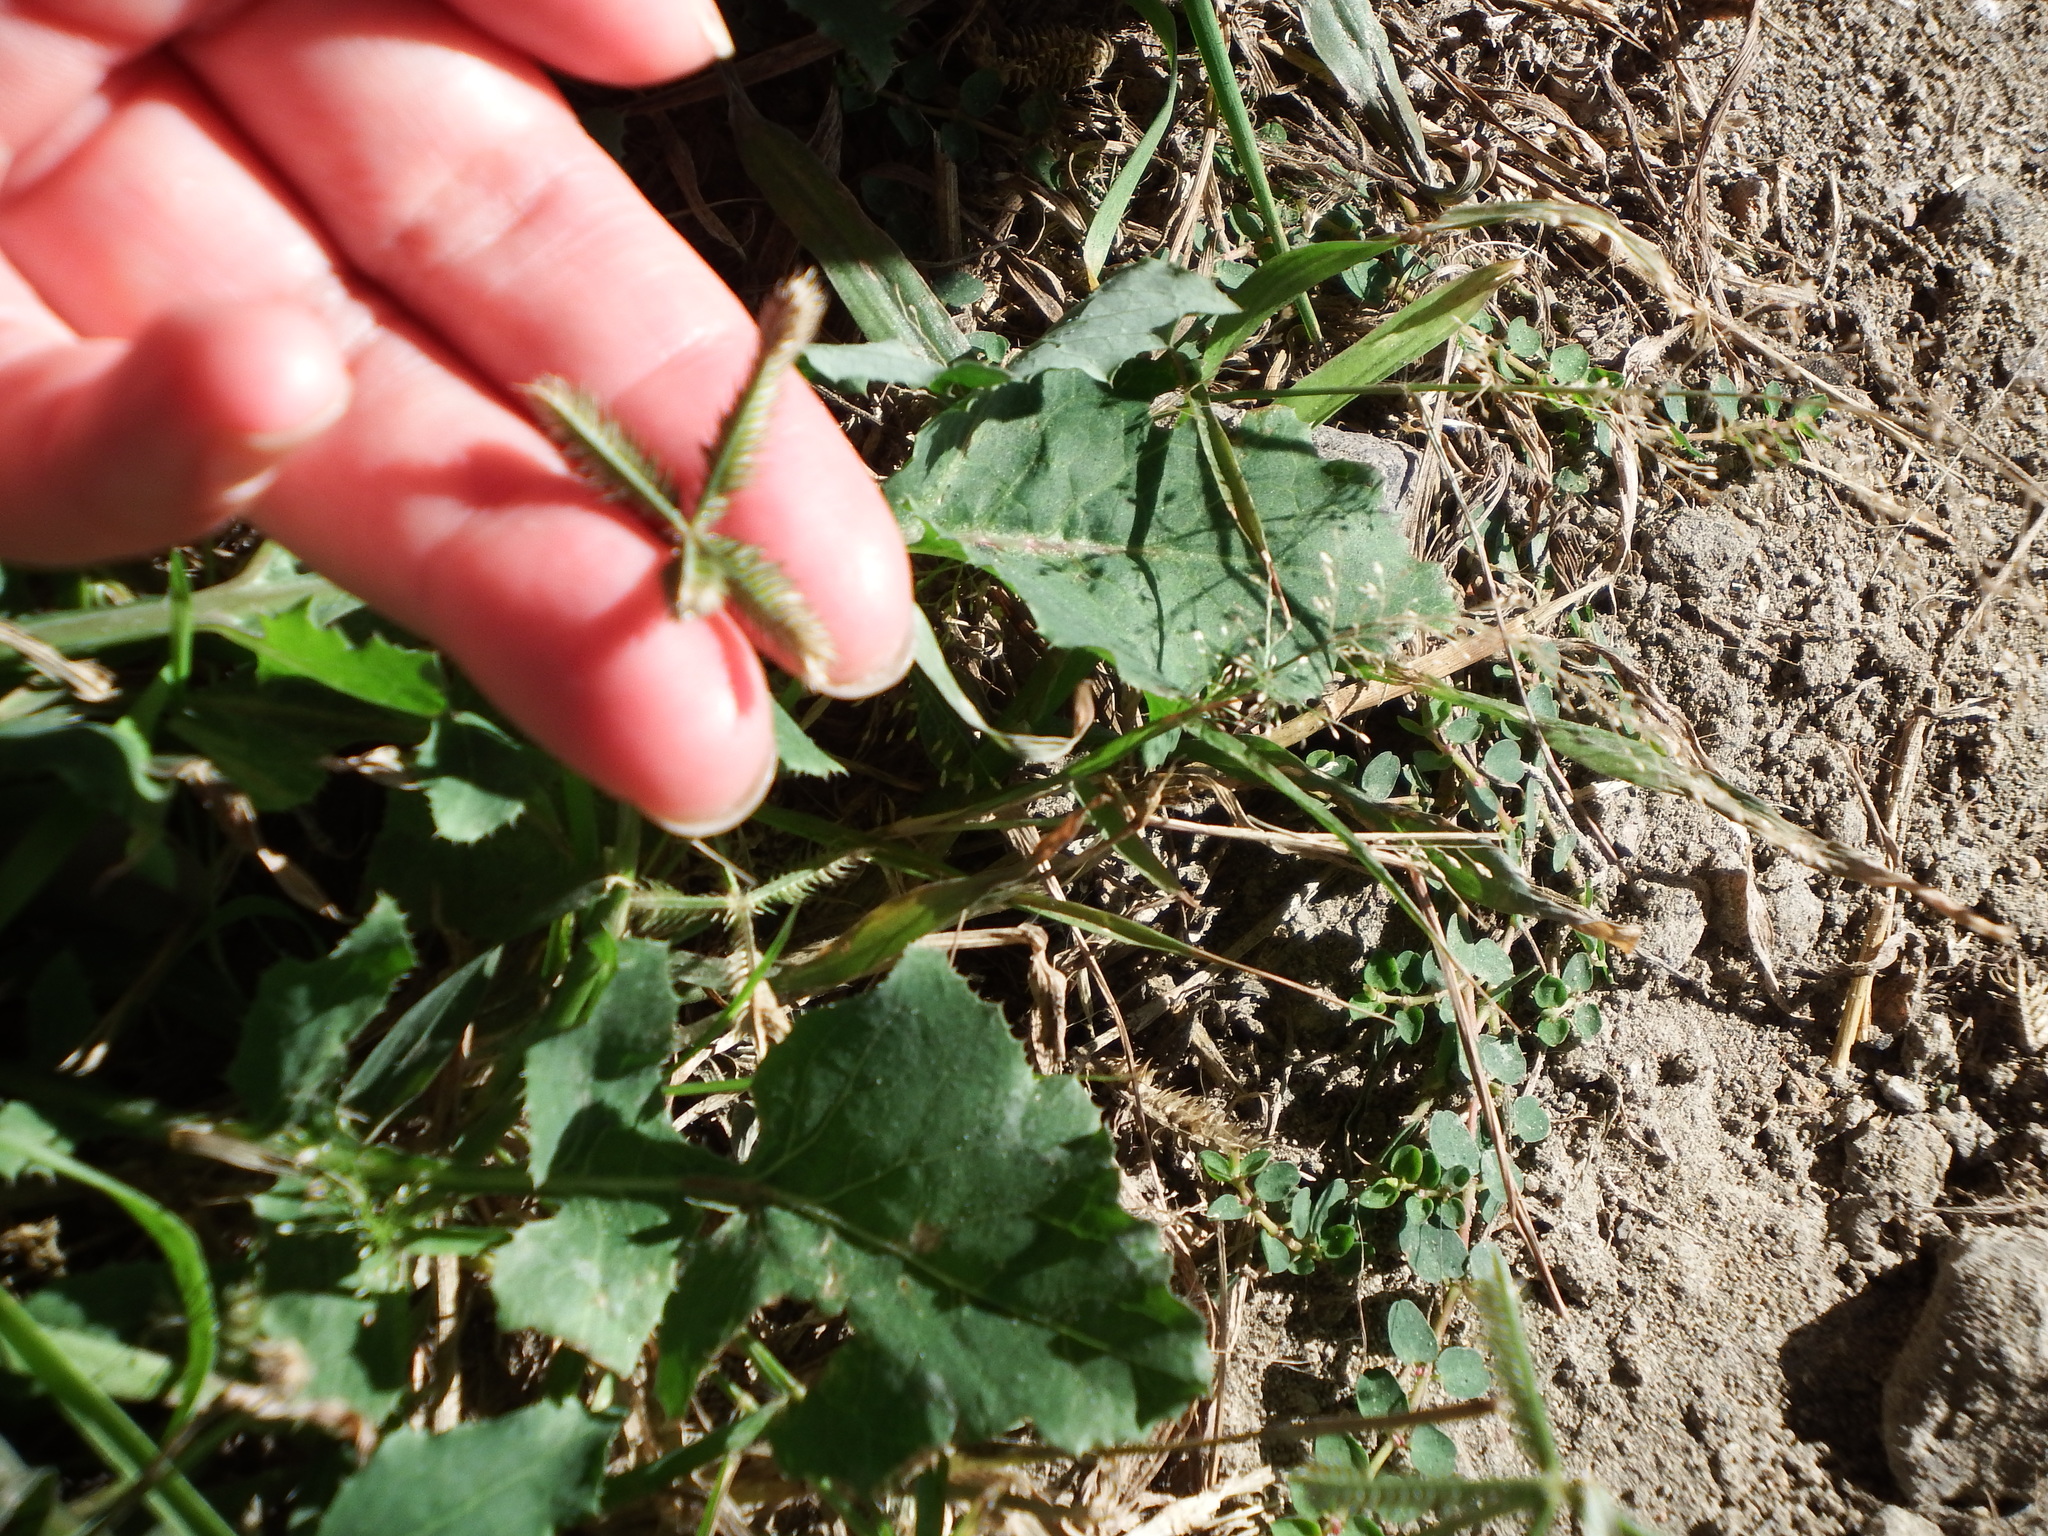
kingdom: Plantae
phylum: Tracheophyta
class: Liliopsida
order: Poales
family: Poaceae
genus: Dactyloctenium
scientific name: Dactyloctenium aegyptium
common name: Egyptian grass
